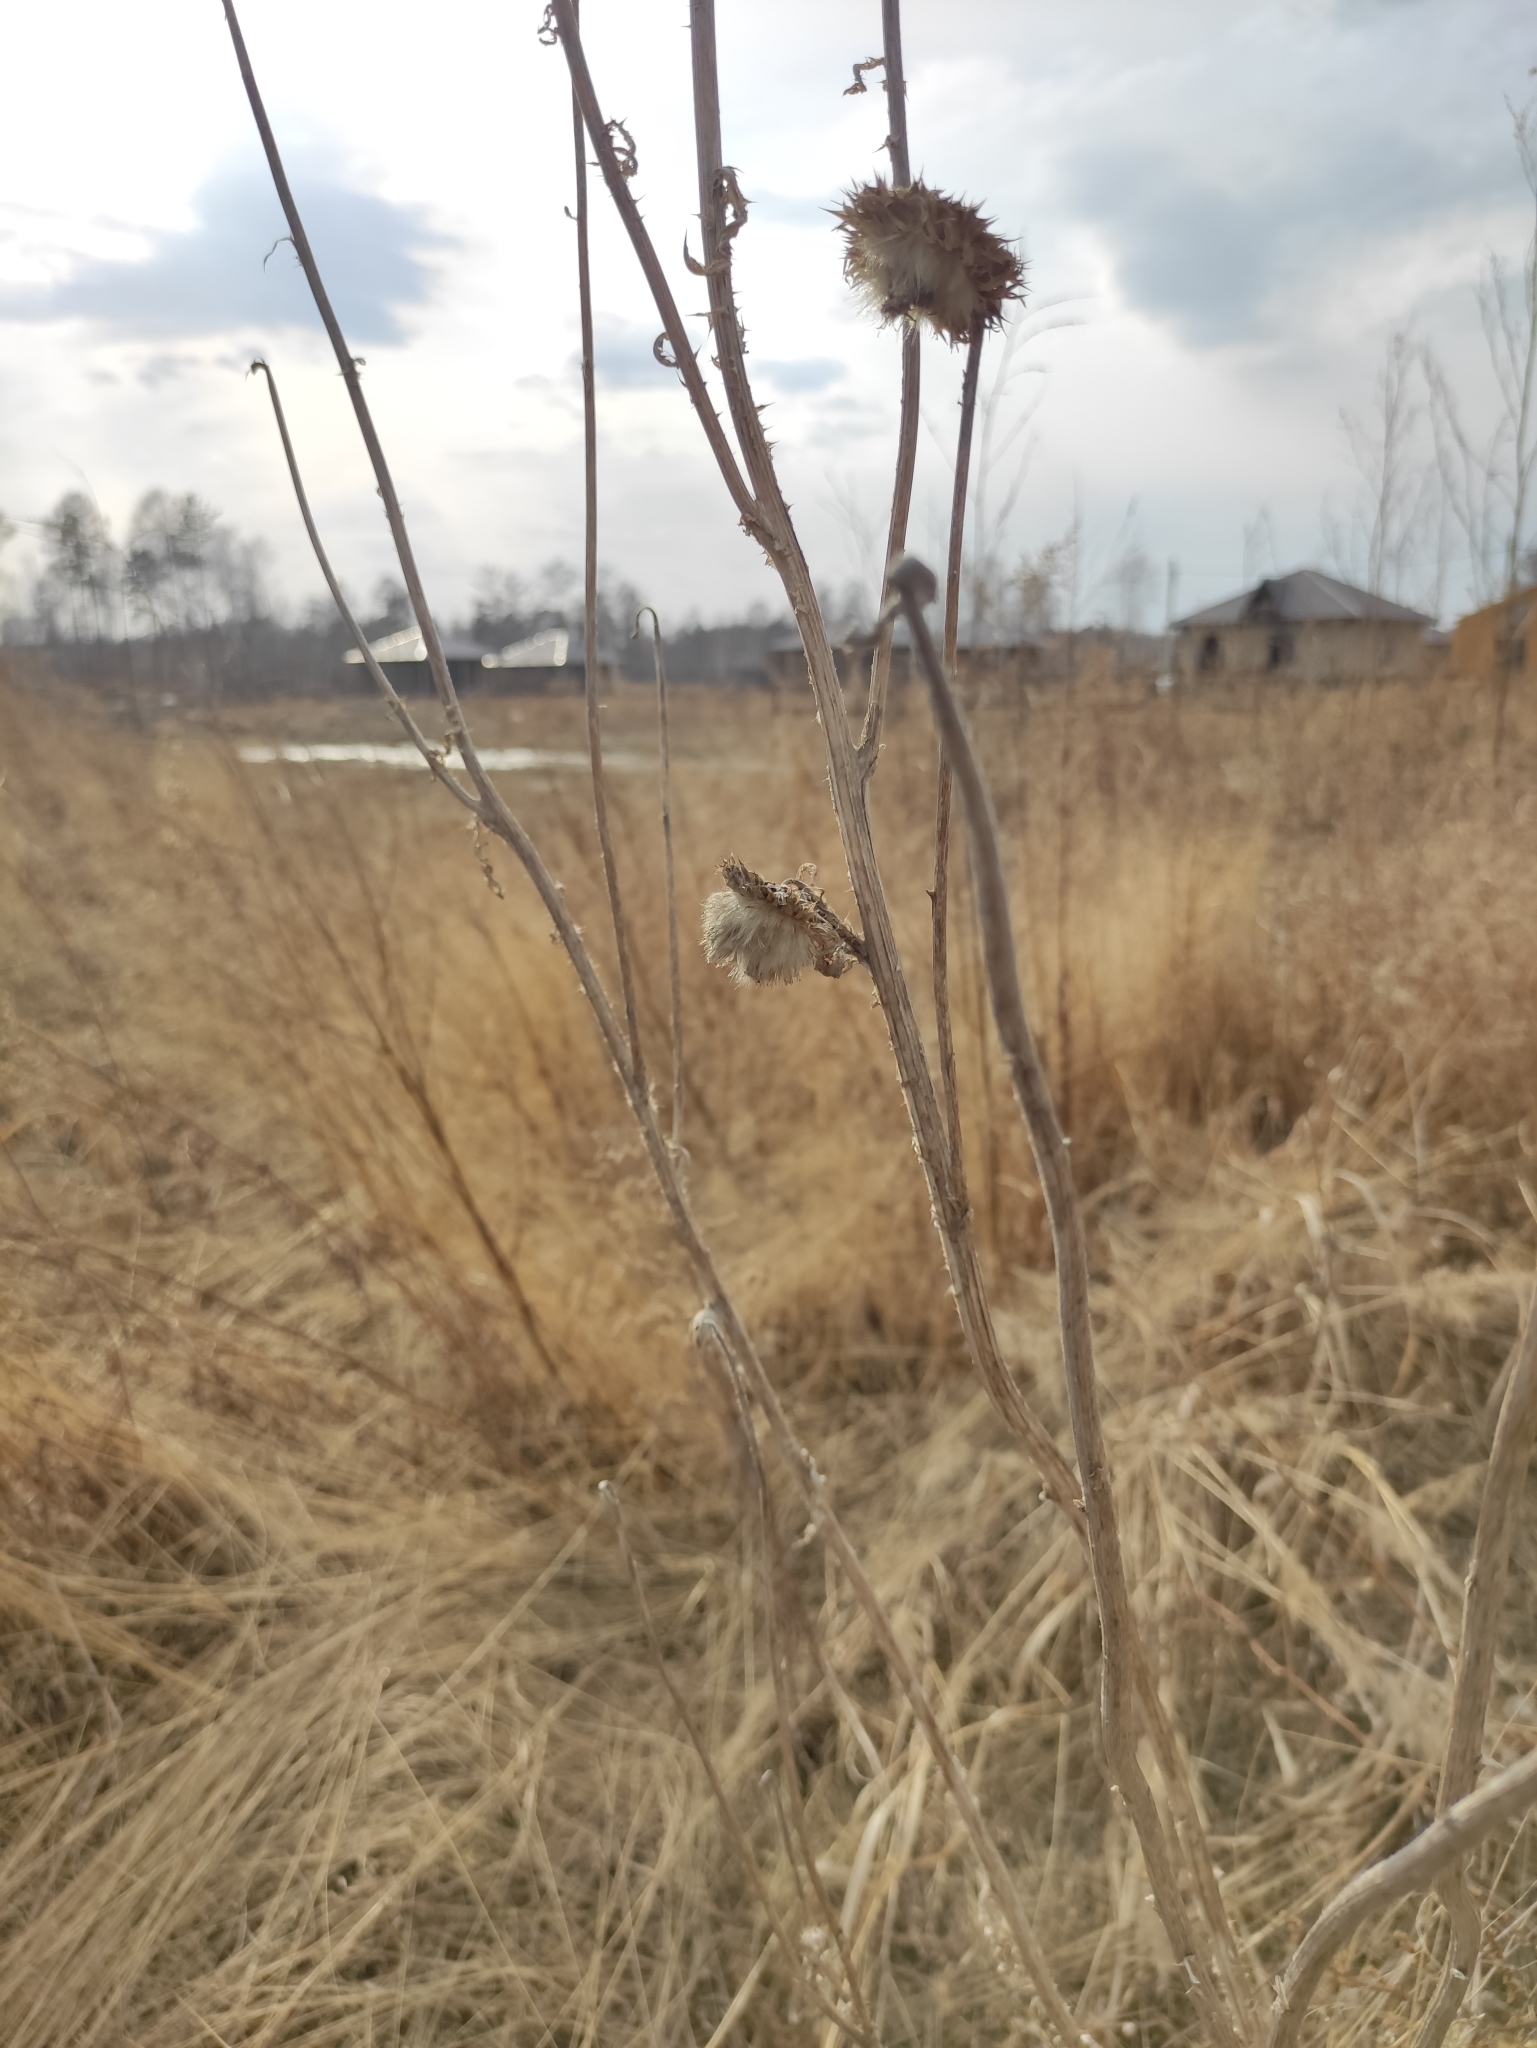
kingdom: Plantae
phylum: Tracheophyta
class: Magnoliopsida
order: Asterales
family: Asteraceae
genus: Carduus
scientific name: Carduus nutans
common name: Musk thistle
